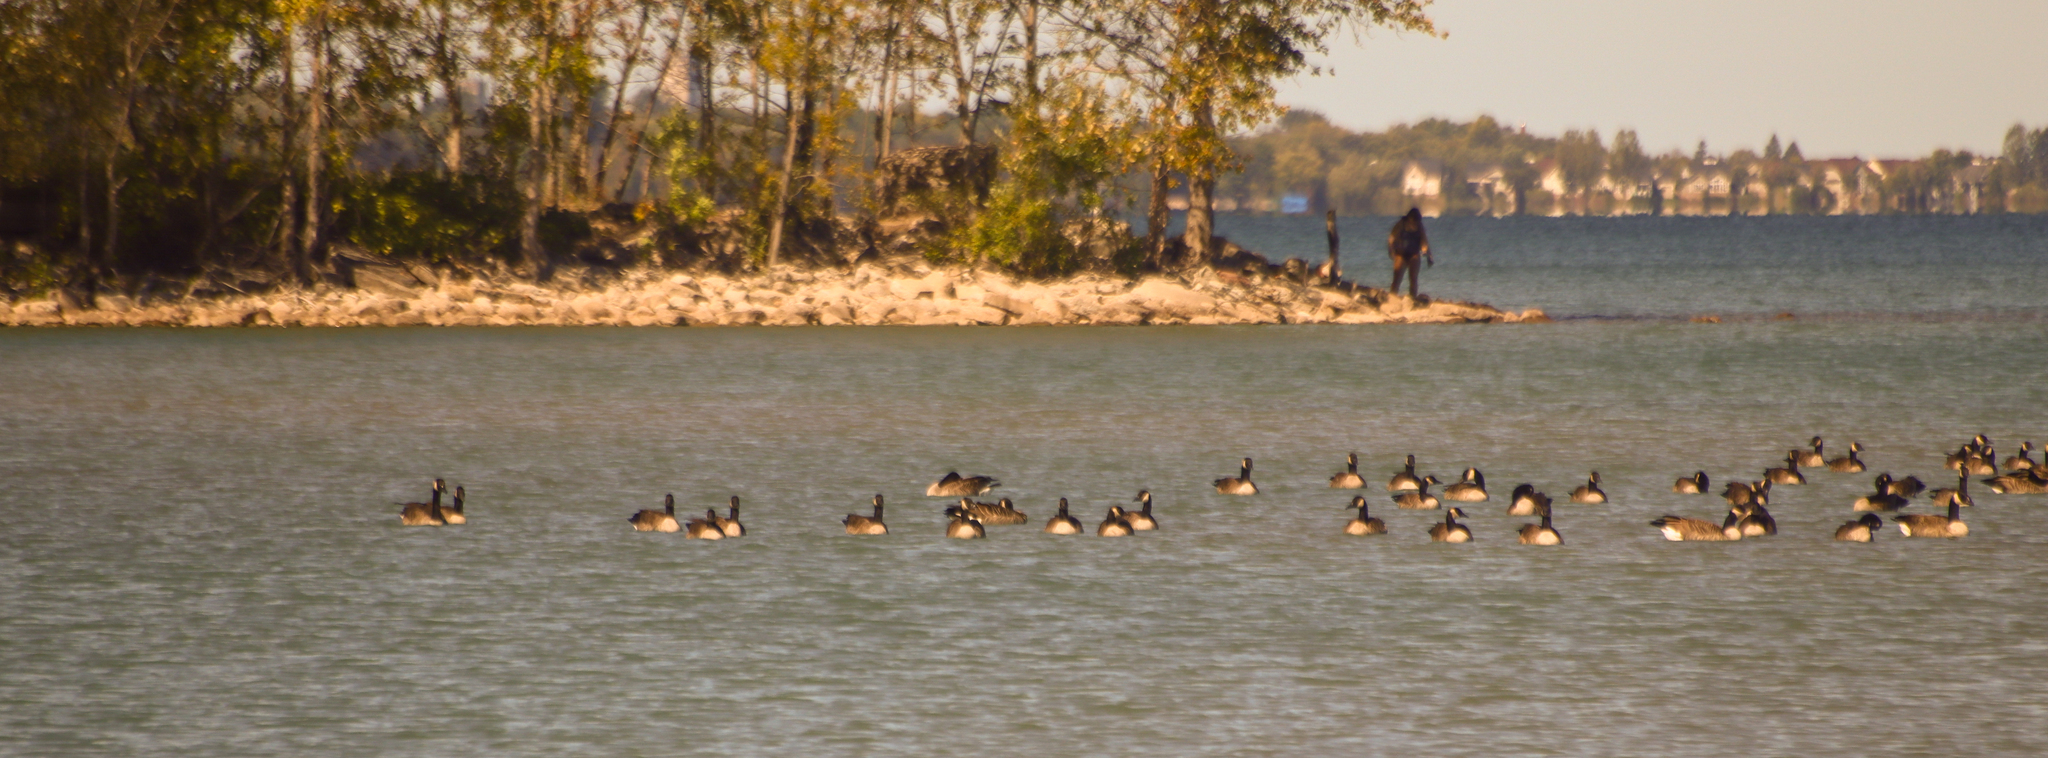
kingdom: Animalia
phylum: Chordata
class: Aves
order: Anseriformes
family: Anatidae
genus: Branta
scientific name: Branta canadensis
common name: Canada goose
